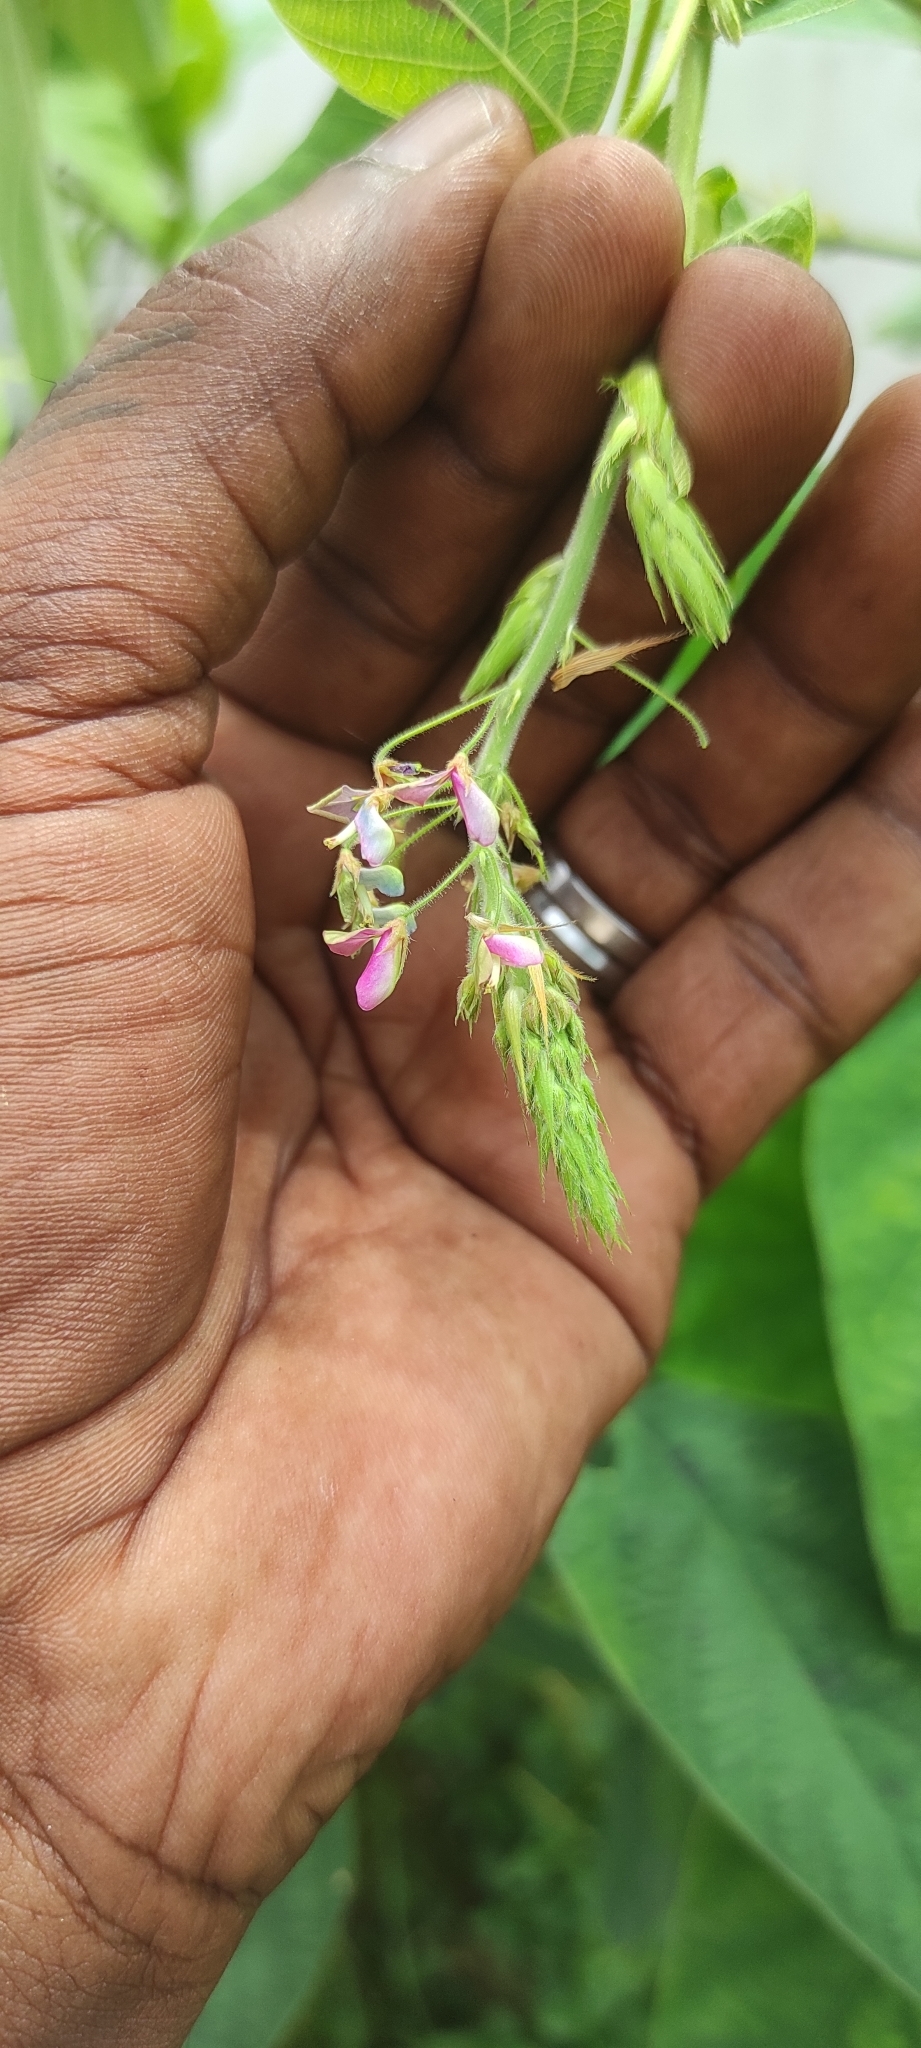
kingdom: Plantae
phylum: Tracheophyta
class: Magnoliopsida
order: Fabales
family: Fabaceae
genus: Desmodium
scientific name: Desmodium tortuosum
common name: Dixie ticktrefoil
